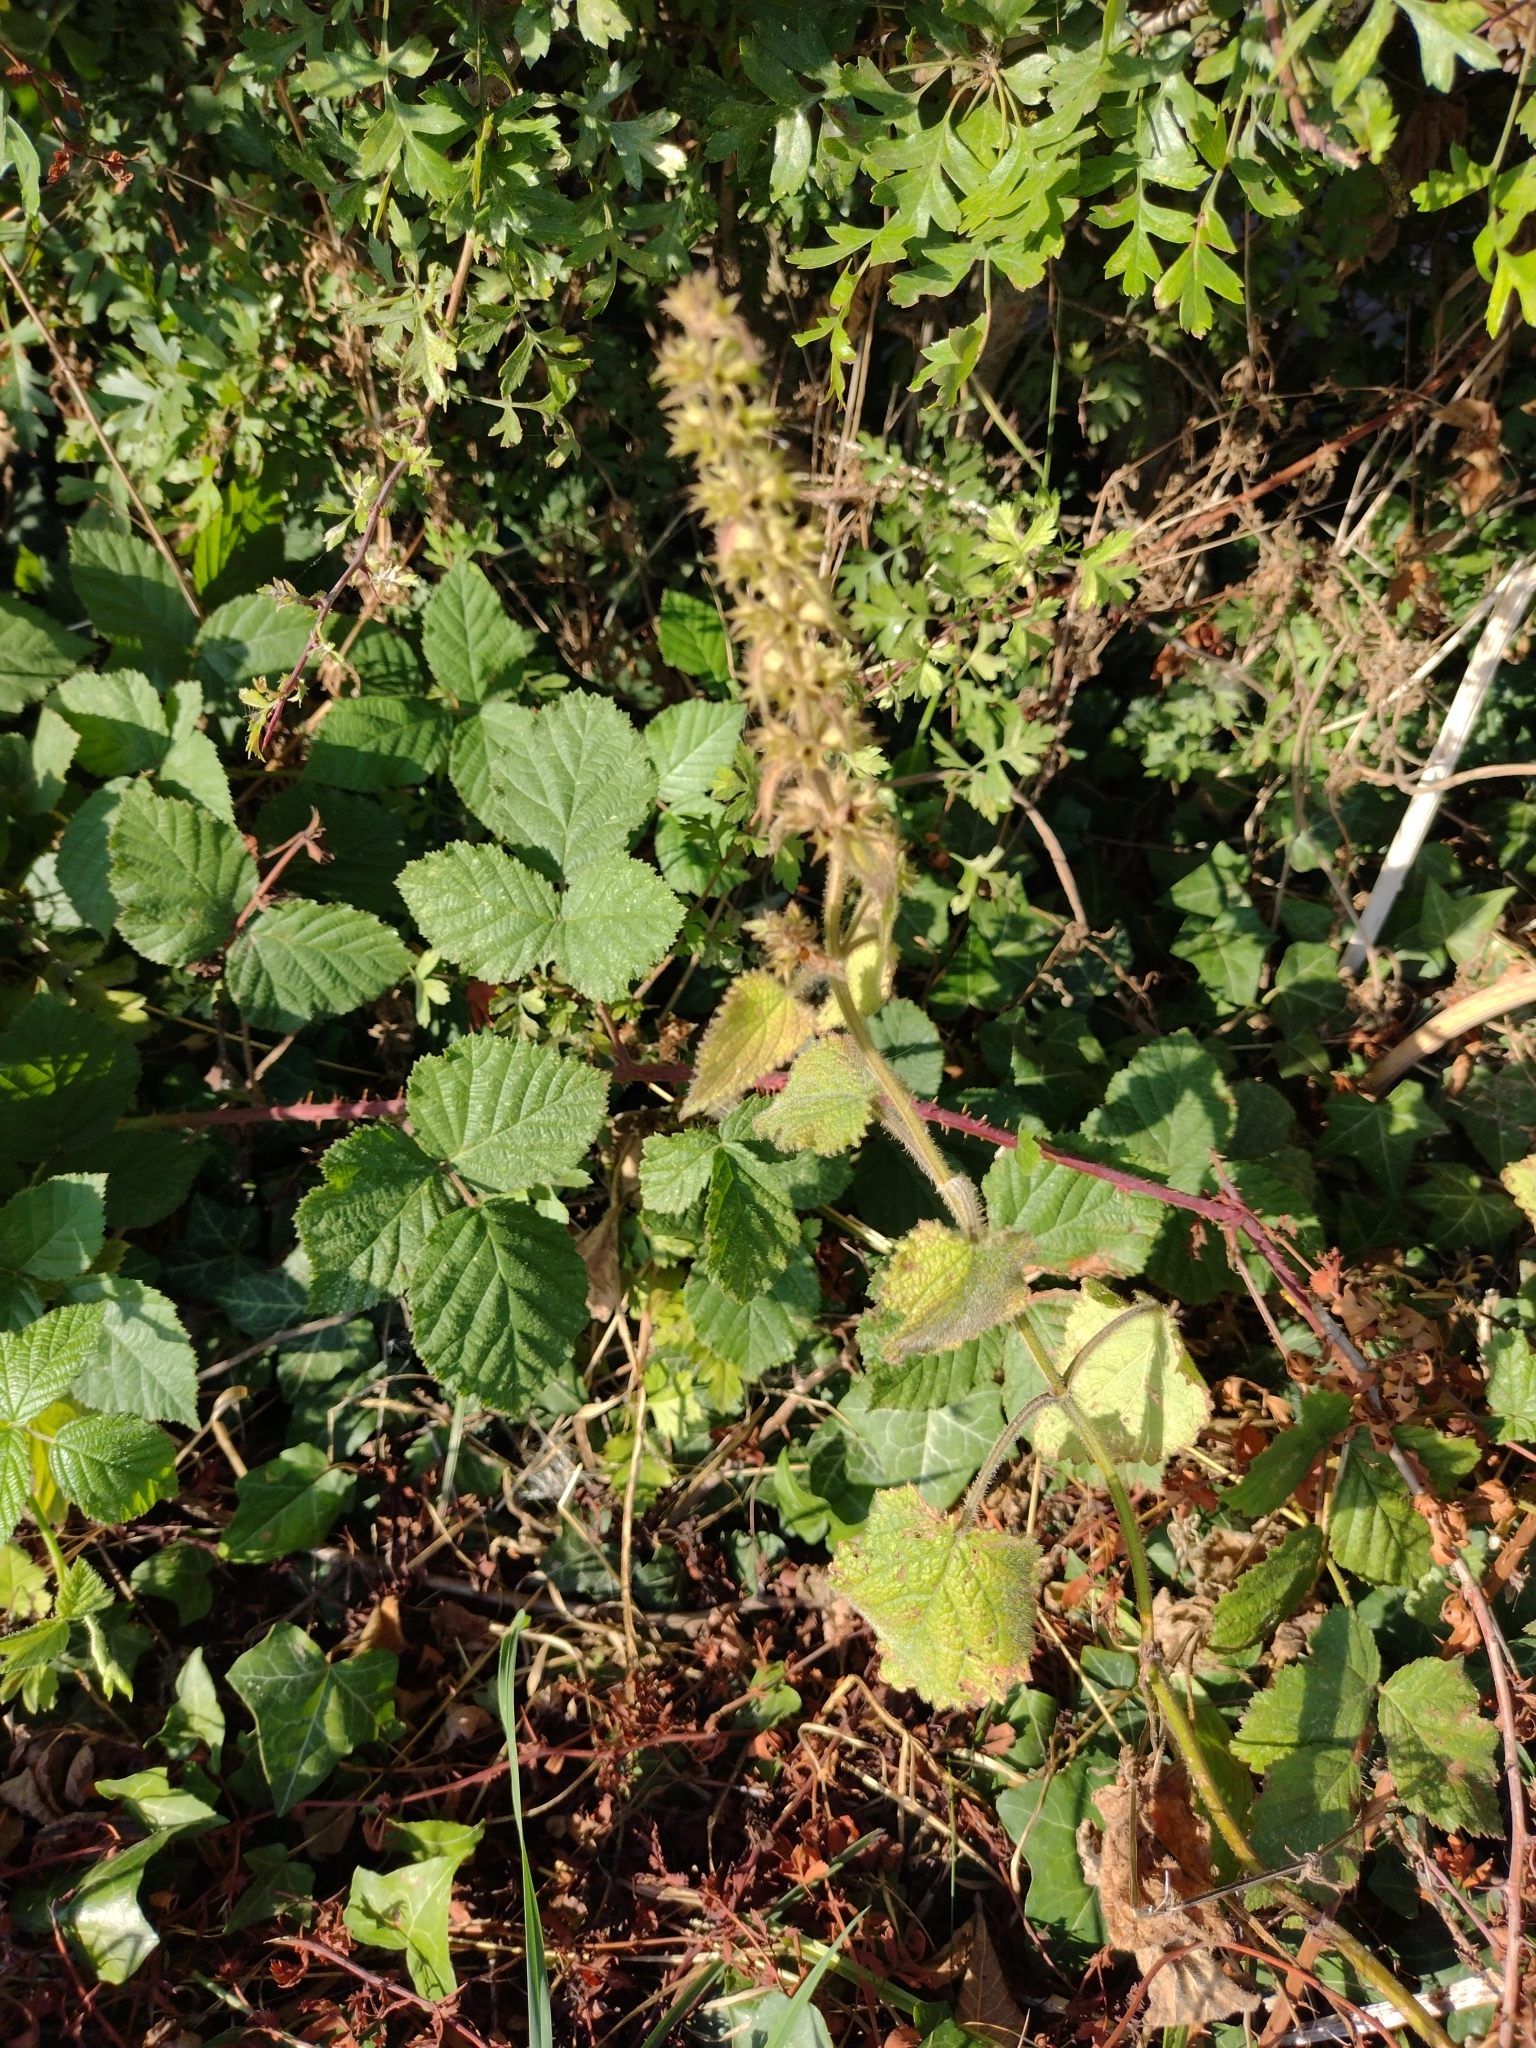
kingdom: Plantae
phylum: Tracheophyta
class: Magnoliopsida
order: Lamiales
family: Lamiaceae
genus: Stachys
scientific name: Stachys sylvatica
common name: Hedge woundwort
